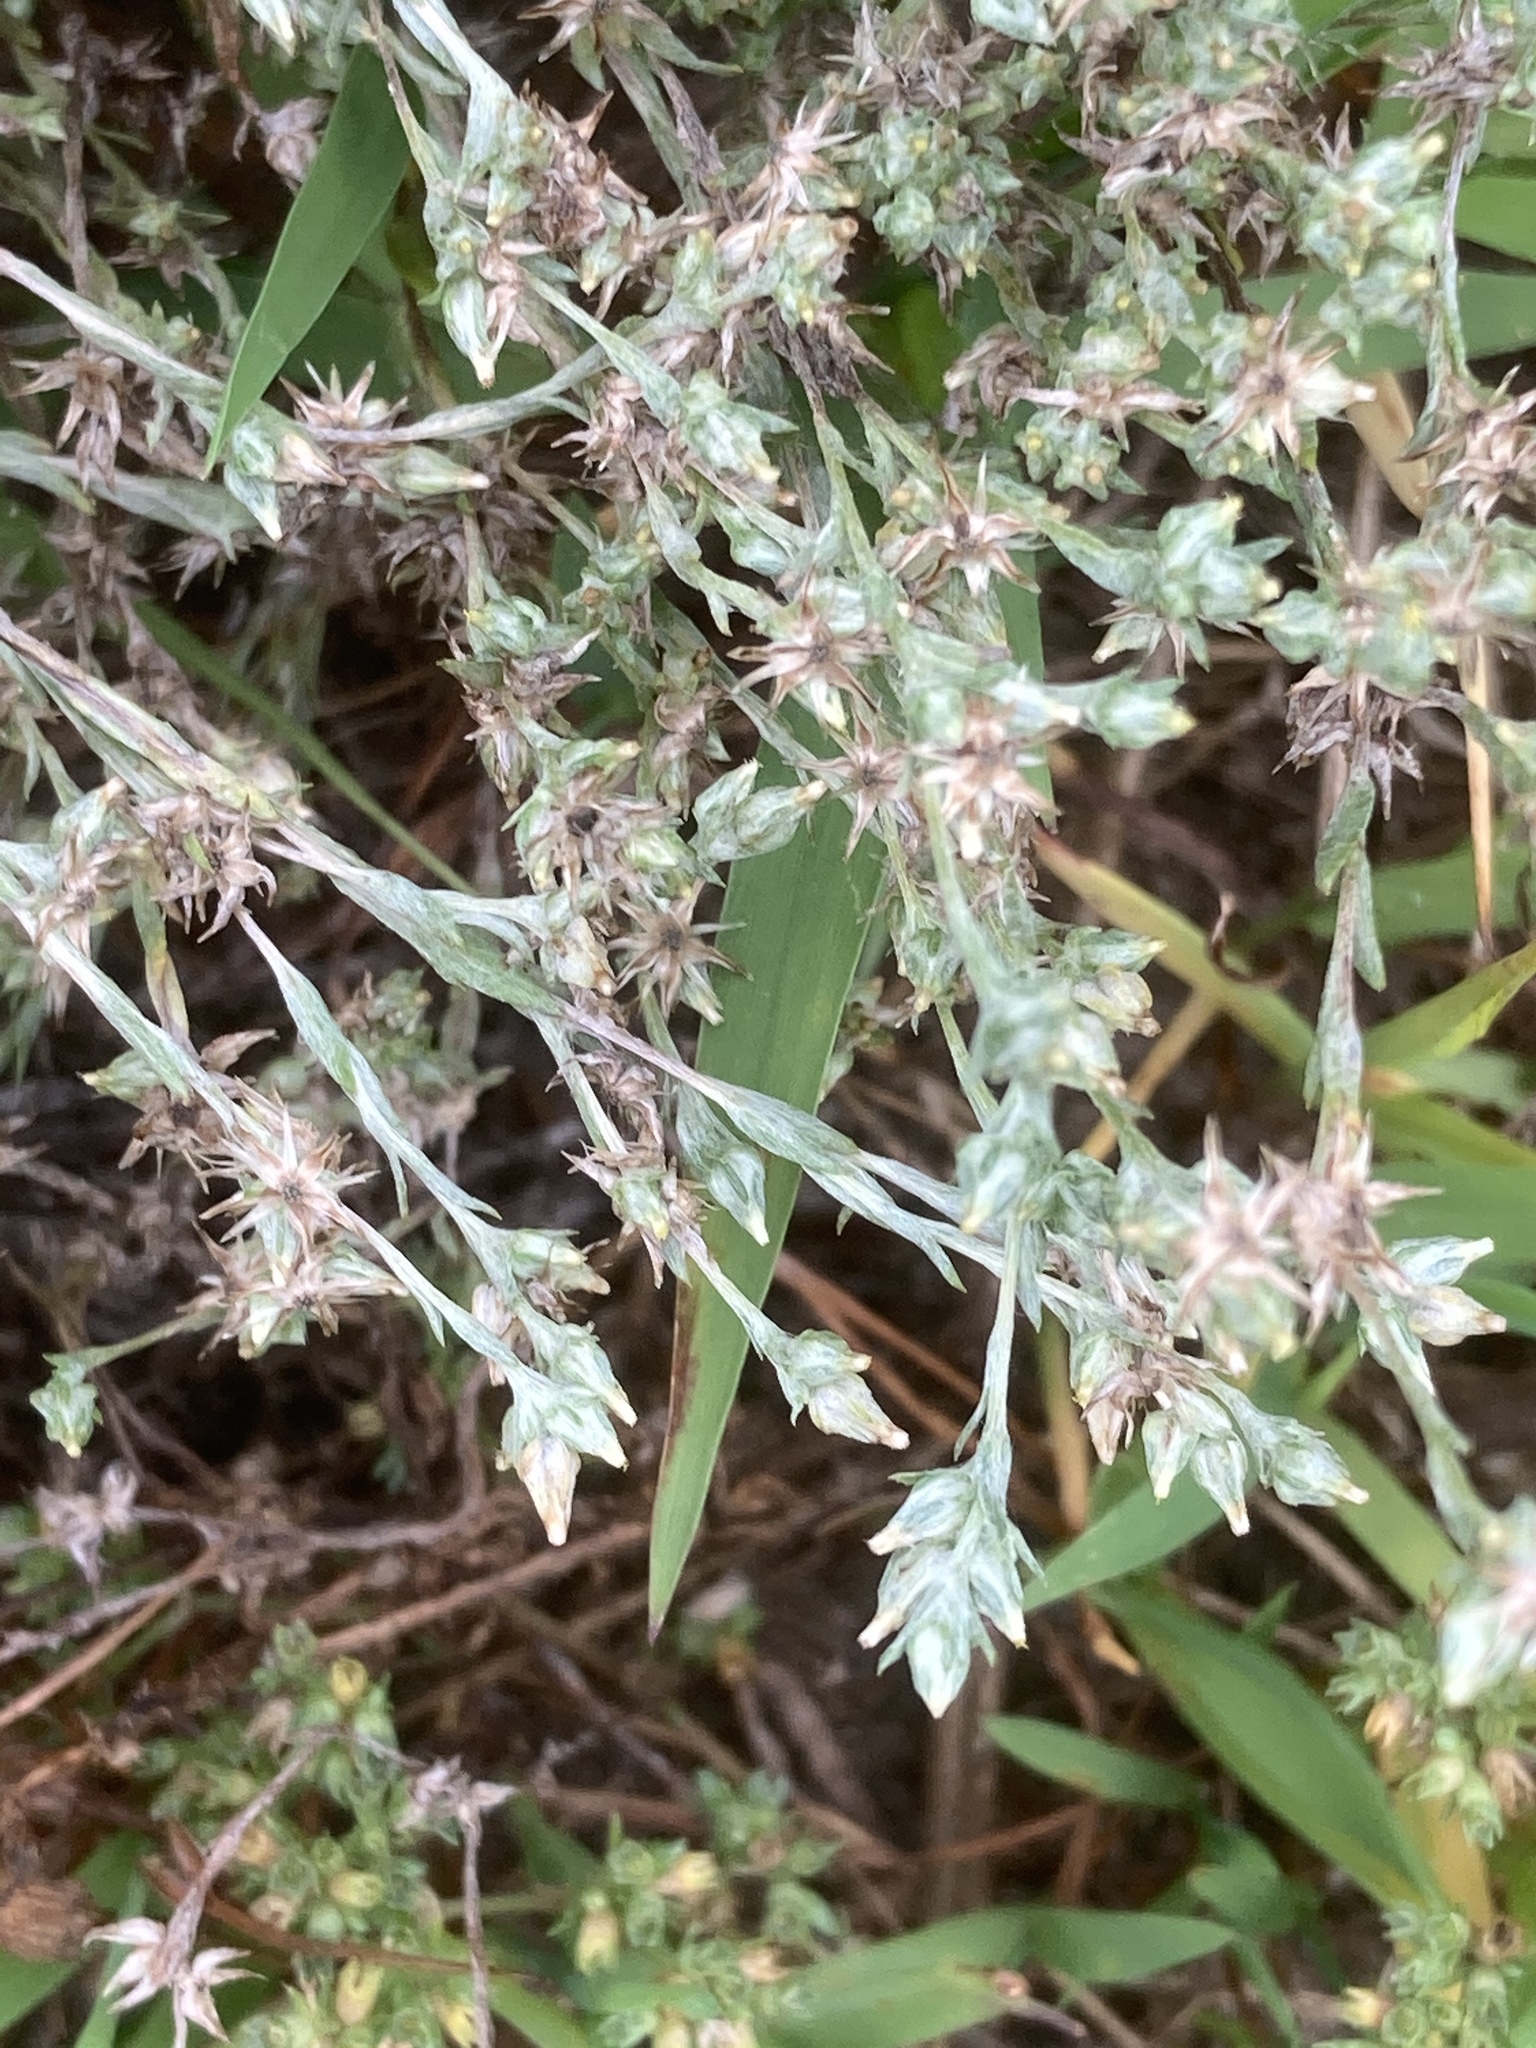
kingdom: Plantae
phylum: Tracheophyta
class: Magnoliopsida
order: Asterales
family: Asteraceae
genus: Logfia
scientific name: Logfia minima
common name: Little cottonrose
